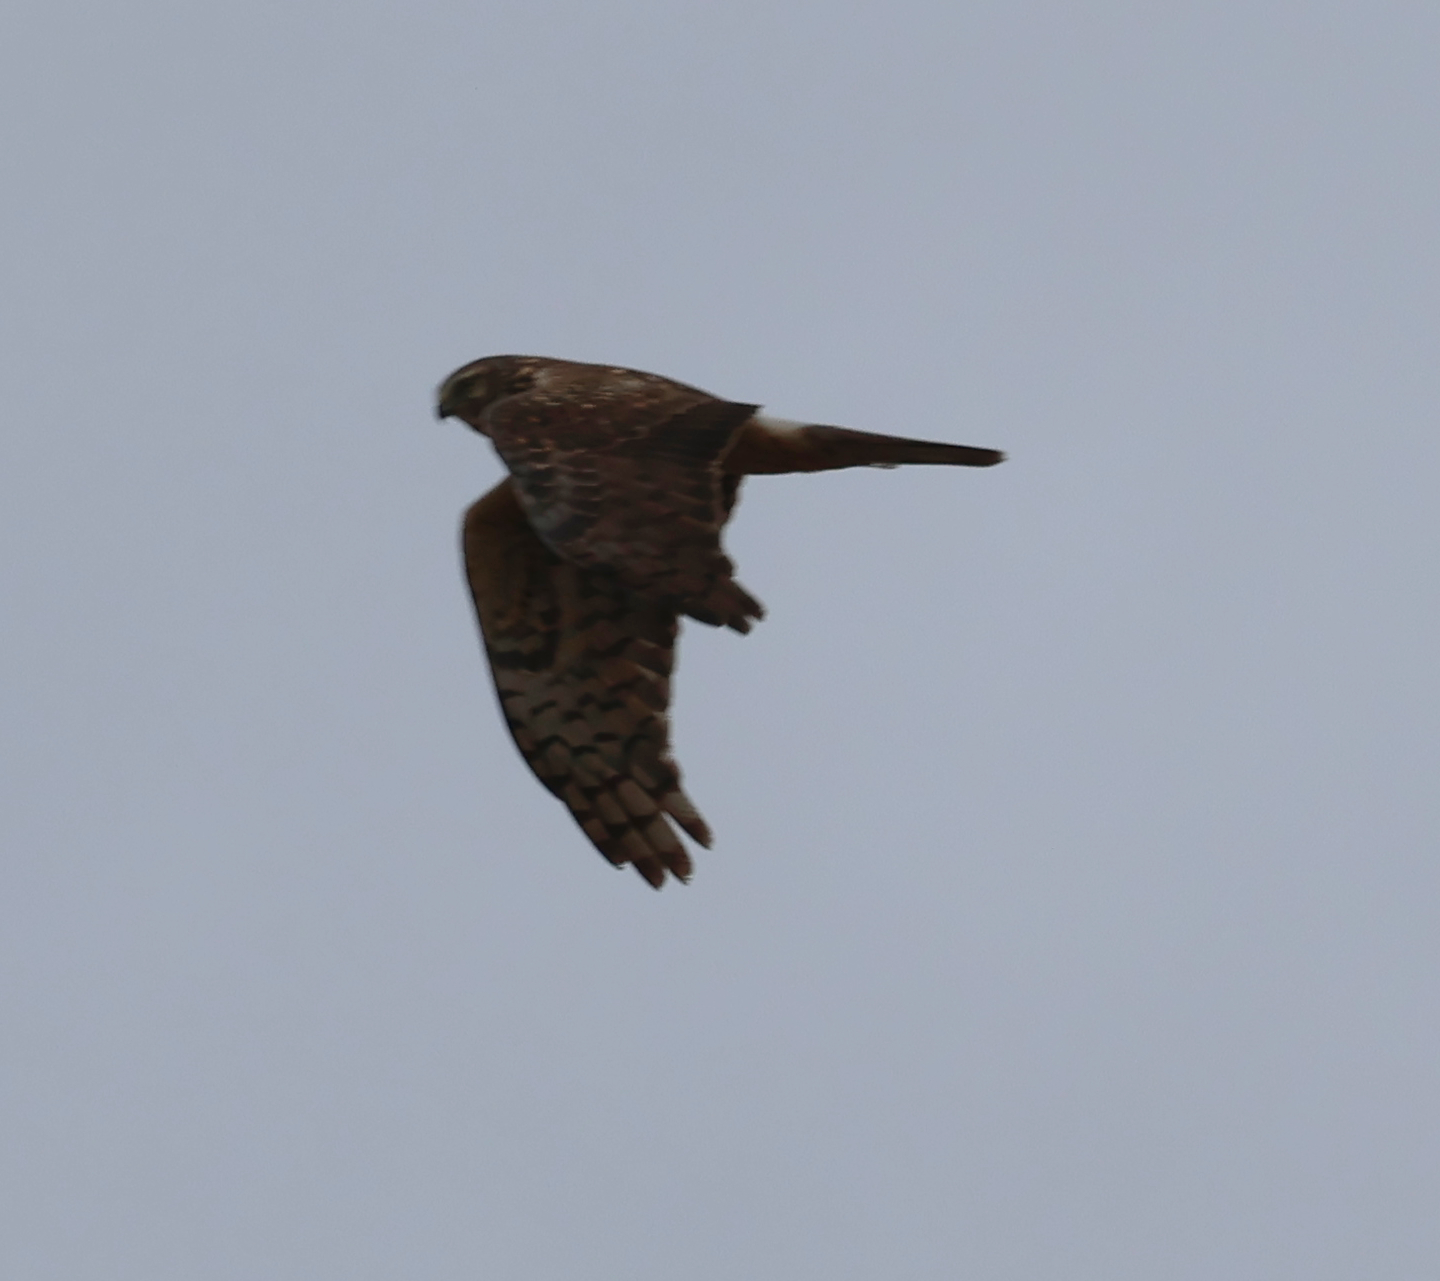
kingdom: Animalia
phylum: Chordata
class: Aves
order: Accipitriformes
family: Accipitridae
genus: Circus
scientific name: Circus cyaneus
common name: Hen harrier
